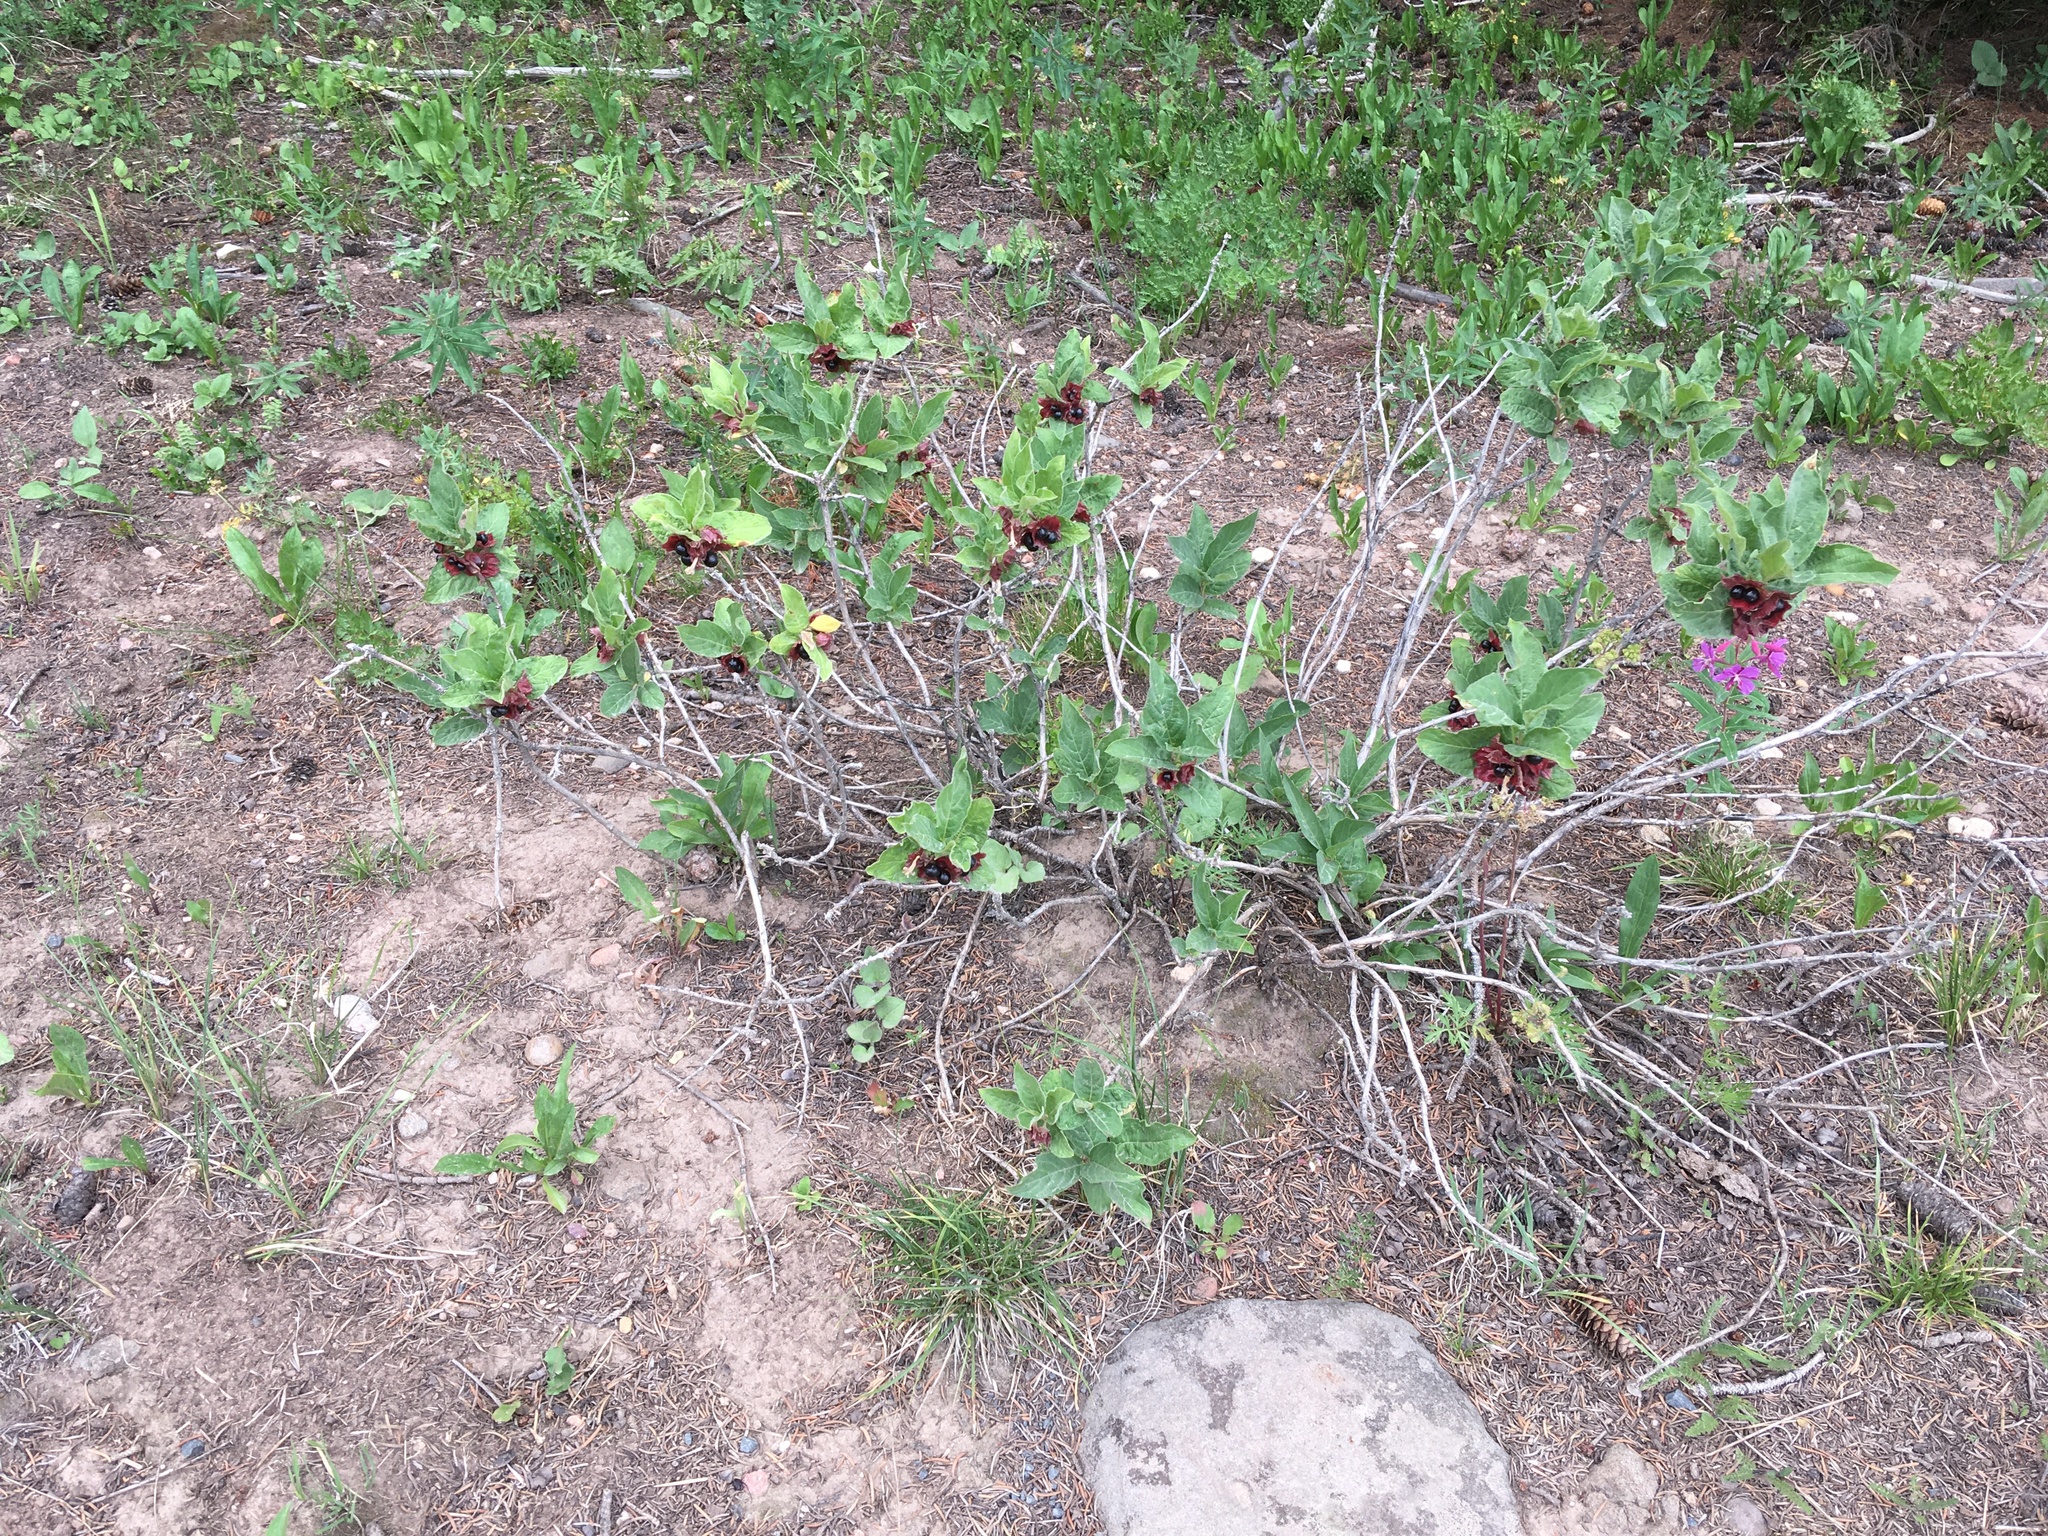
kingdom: Plantae
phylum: Tracheophyta
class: Magnoliopsida
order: Dipsacales
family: Caprifoliaceae
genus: Lonicera
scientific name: Lonicera involucrata
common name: Californian honeysuckle
